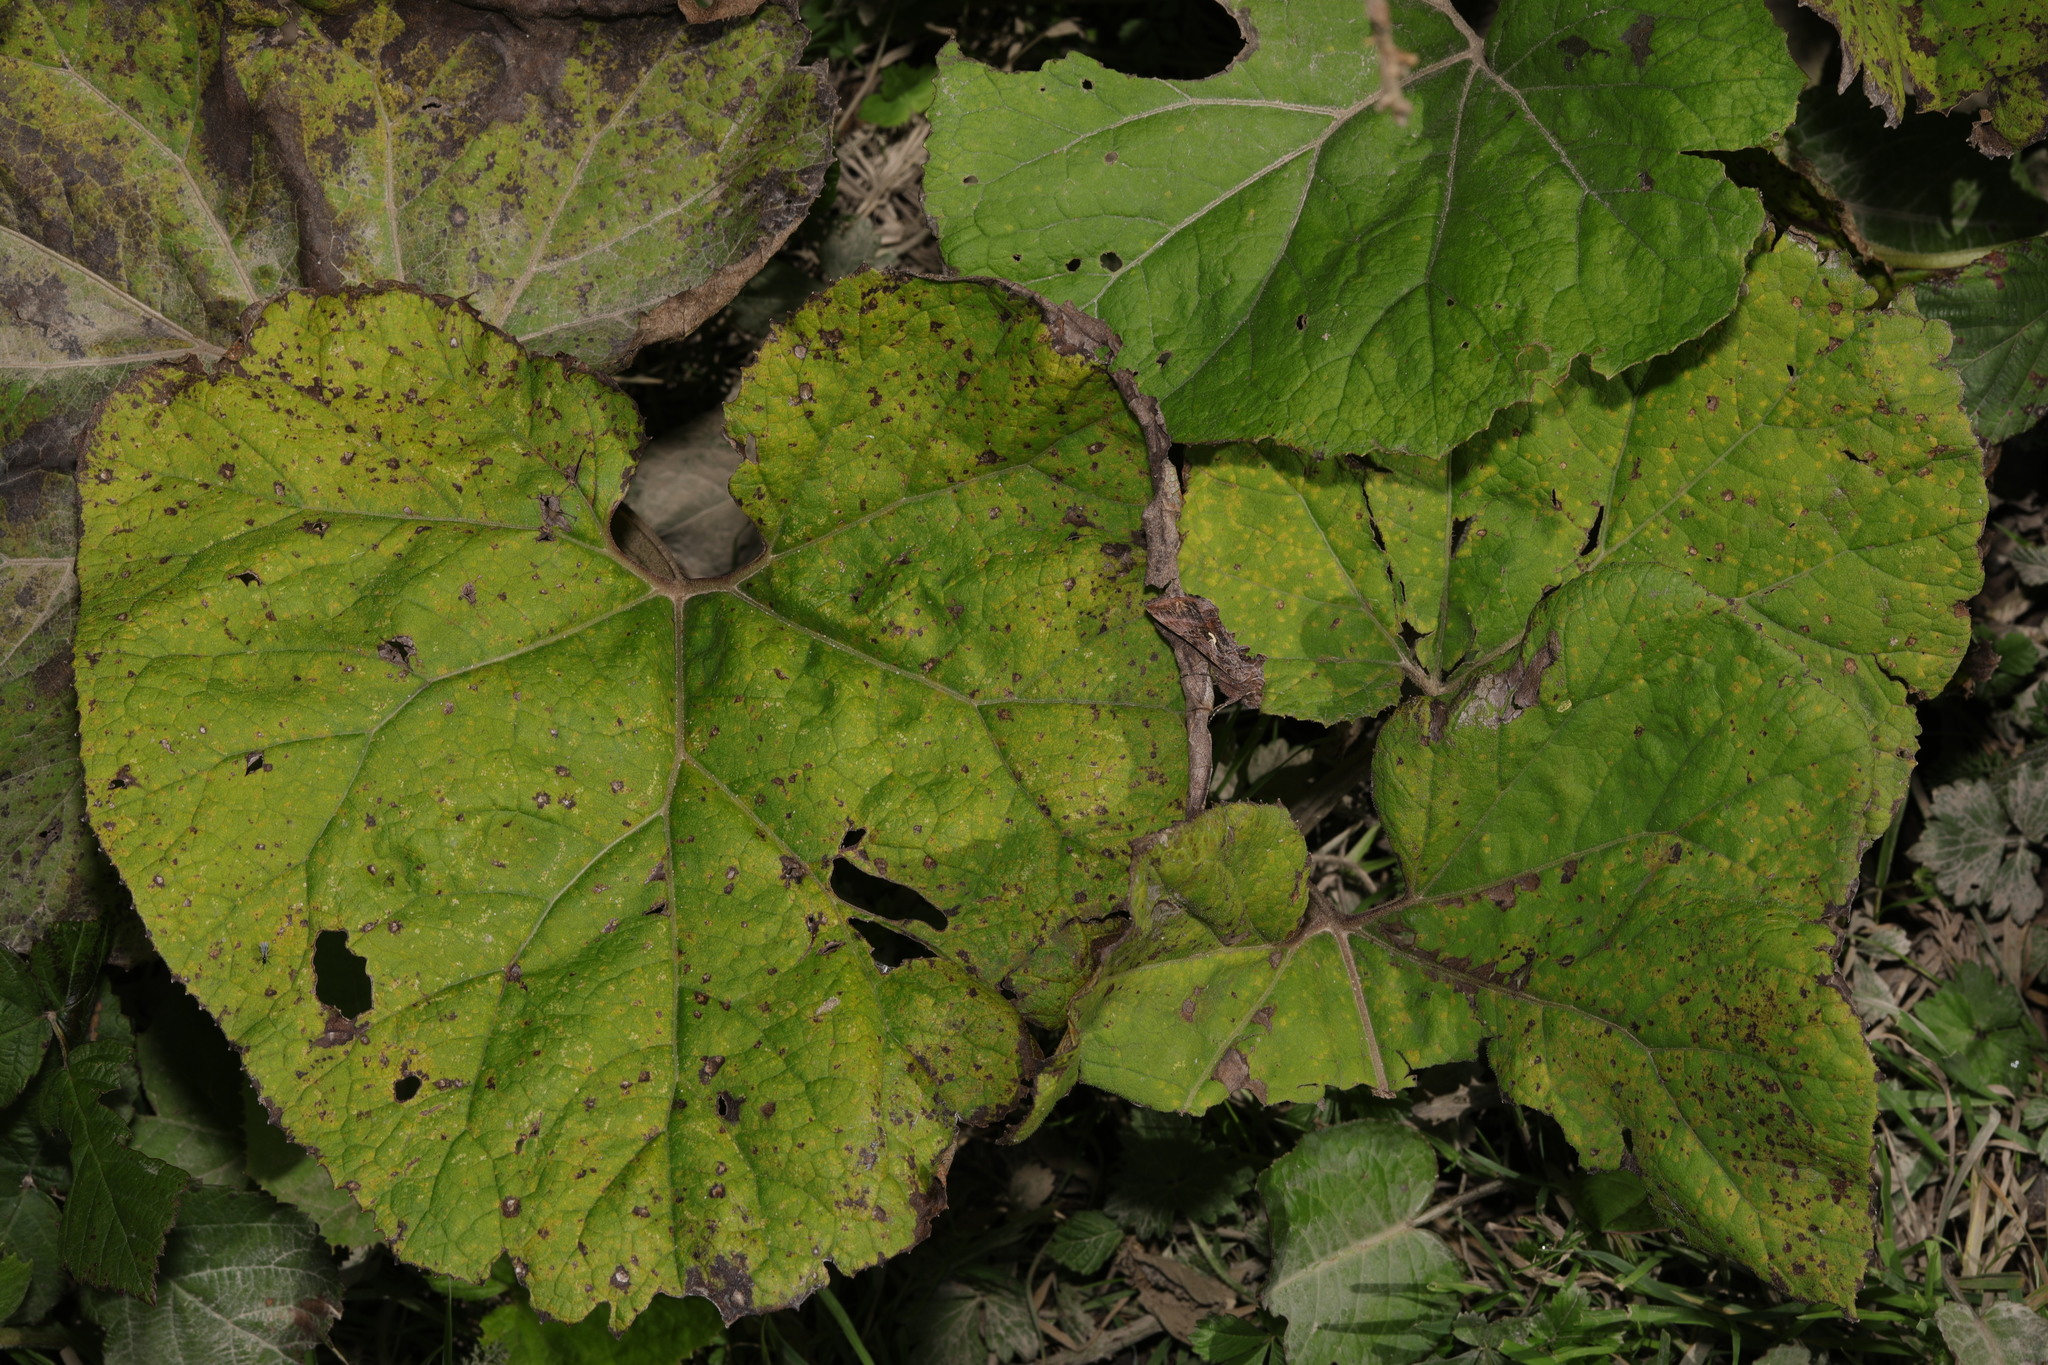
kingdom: Plantae
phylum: Tracheophyta
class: Magnoliopsida
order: Asterales
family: Asteraceae
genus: Tussilago
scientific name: Tussilago farfara
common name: Coltsfoot
